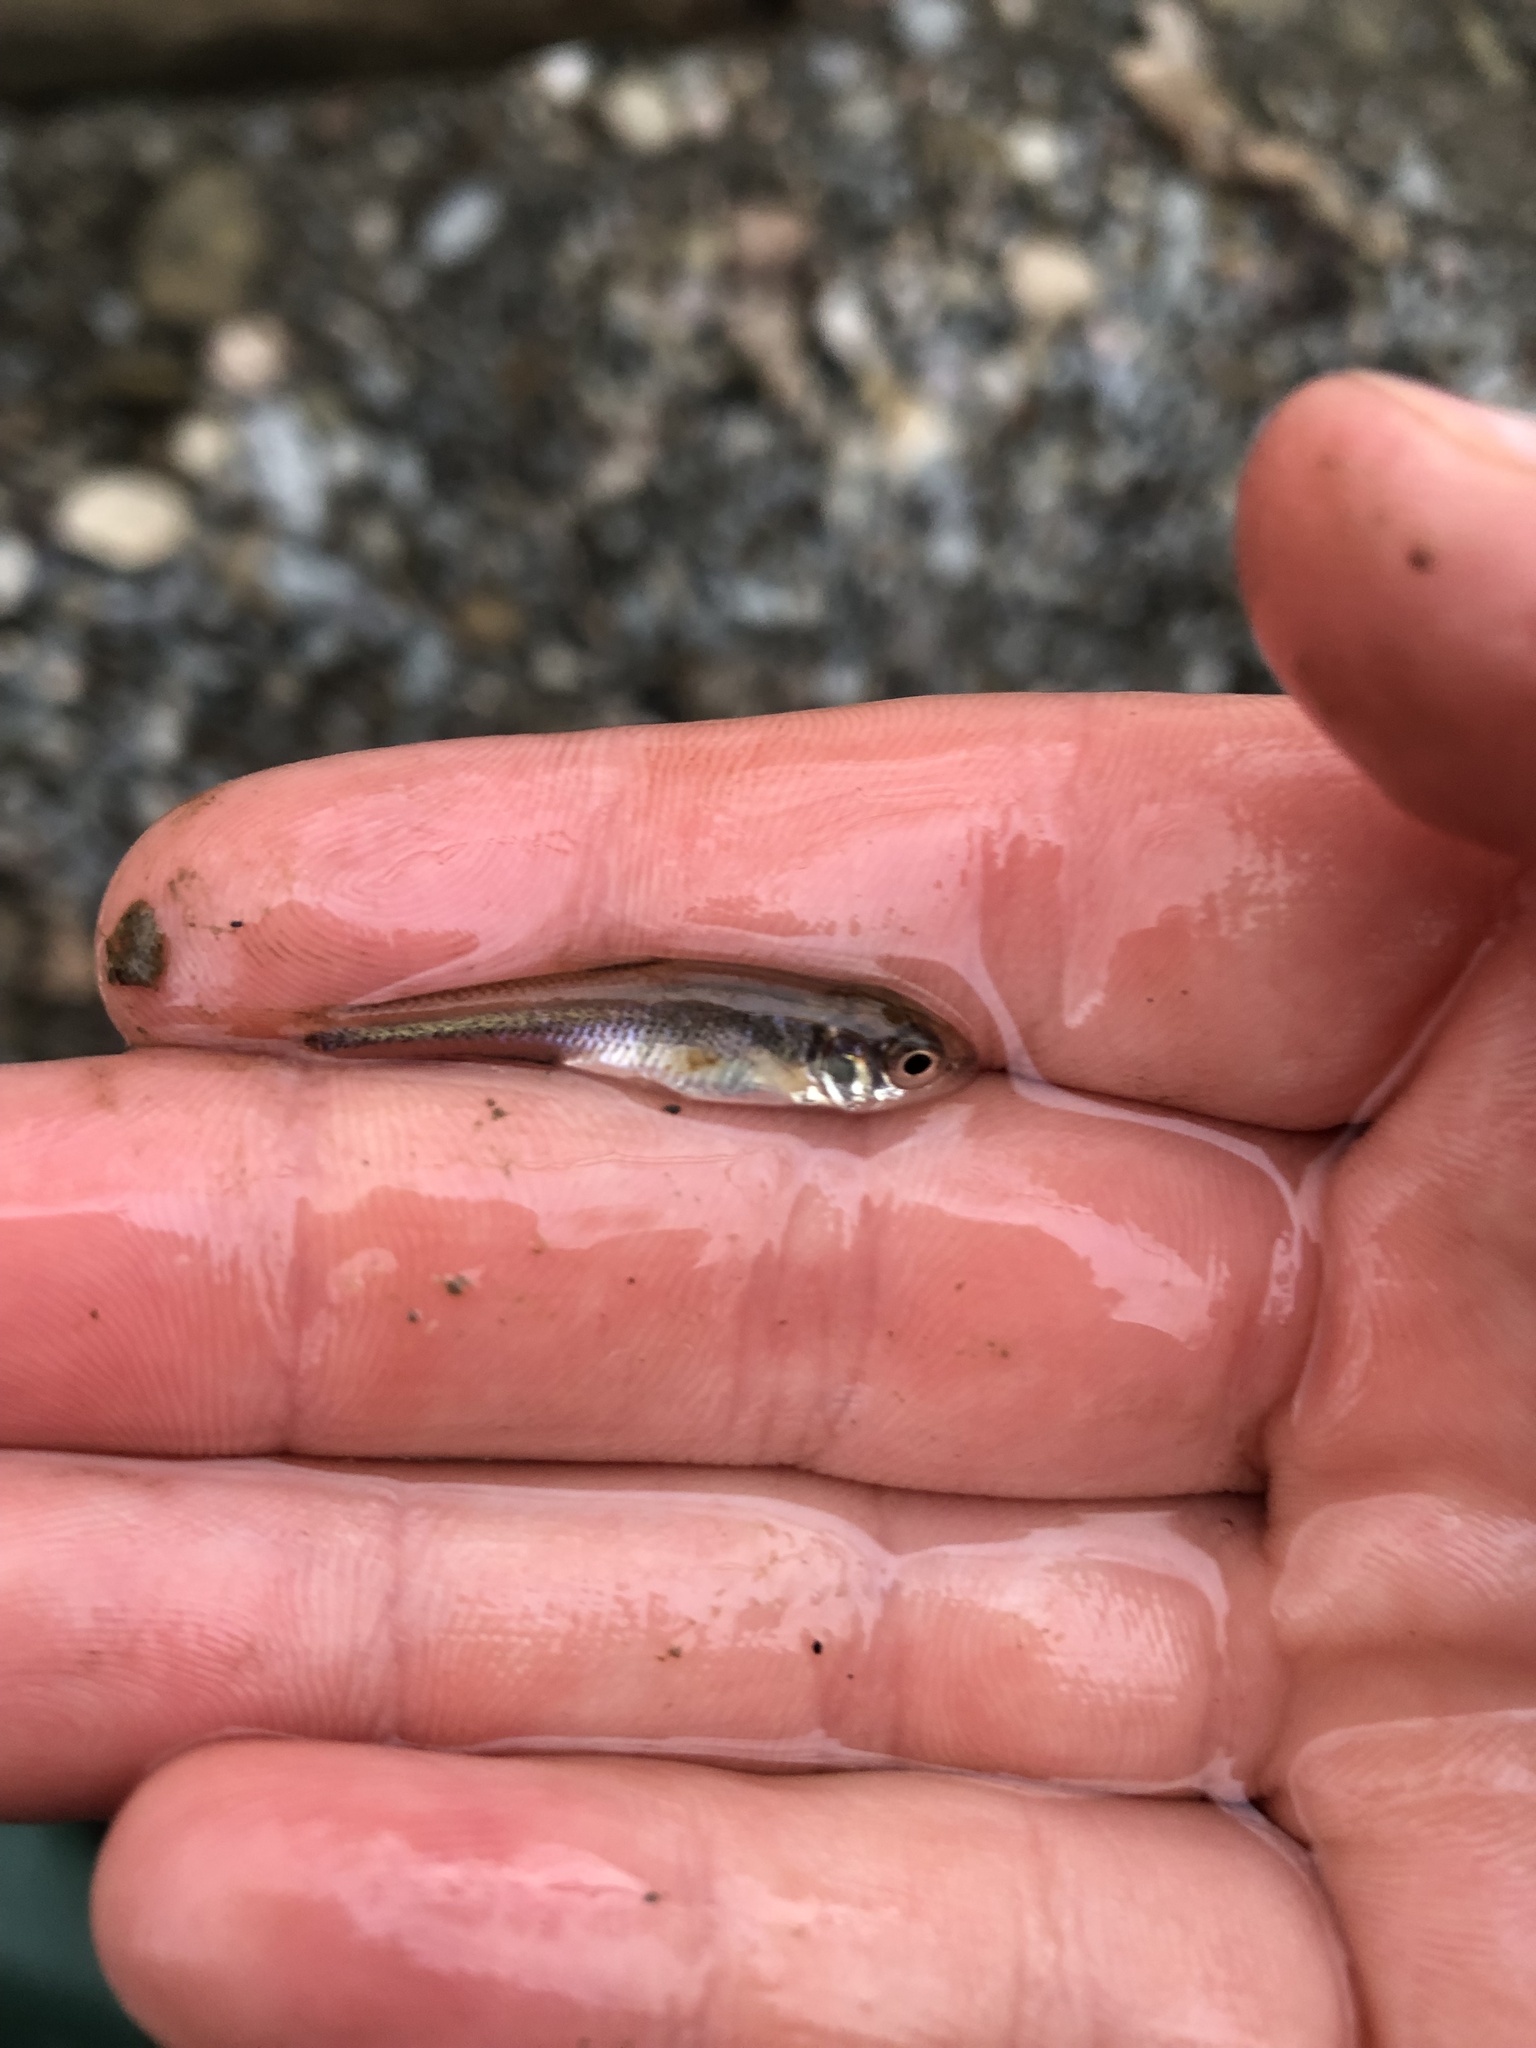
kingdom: Animalia
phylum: Chordata
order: Cypriniformes
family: Cyprinidae
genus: Luxilus
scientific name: Luxilus cornutus
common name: Common shiner
